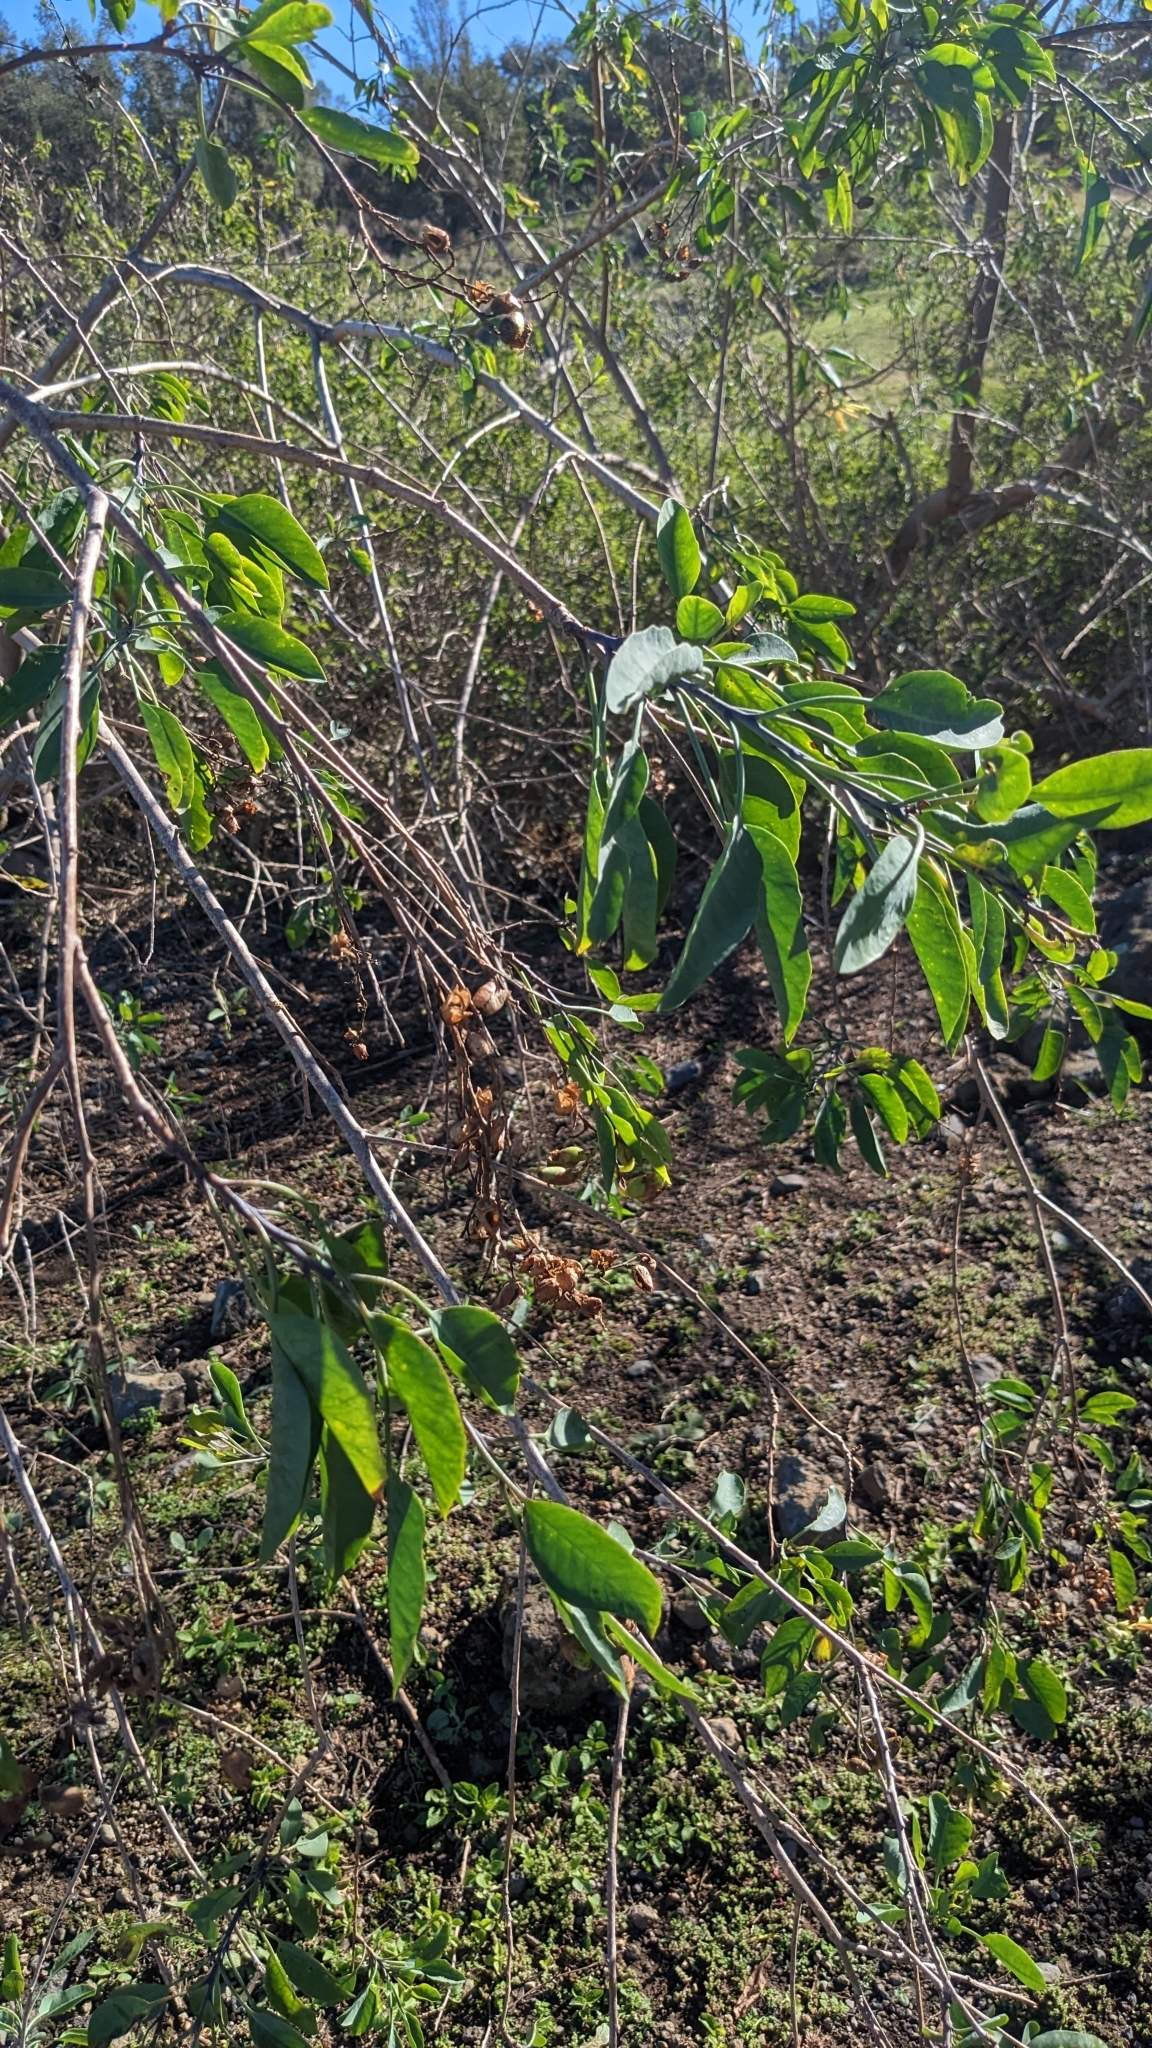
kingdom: Plantae
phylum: Tracheophyta
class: Magnoliopsida
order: Solanales
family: Solanaceae
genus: Nicotiana
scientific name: Nicotiana glauca
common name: Tree tobacco
